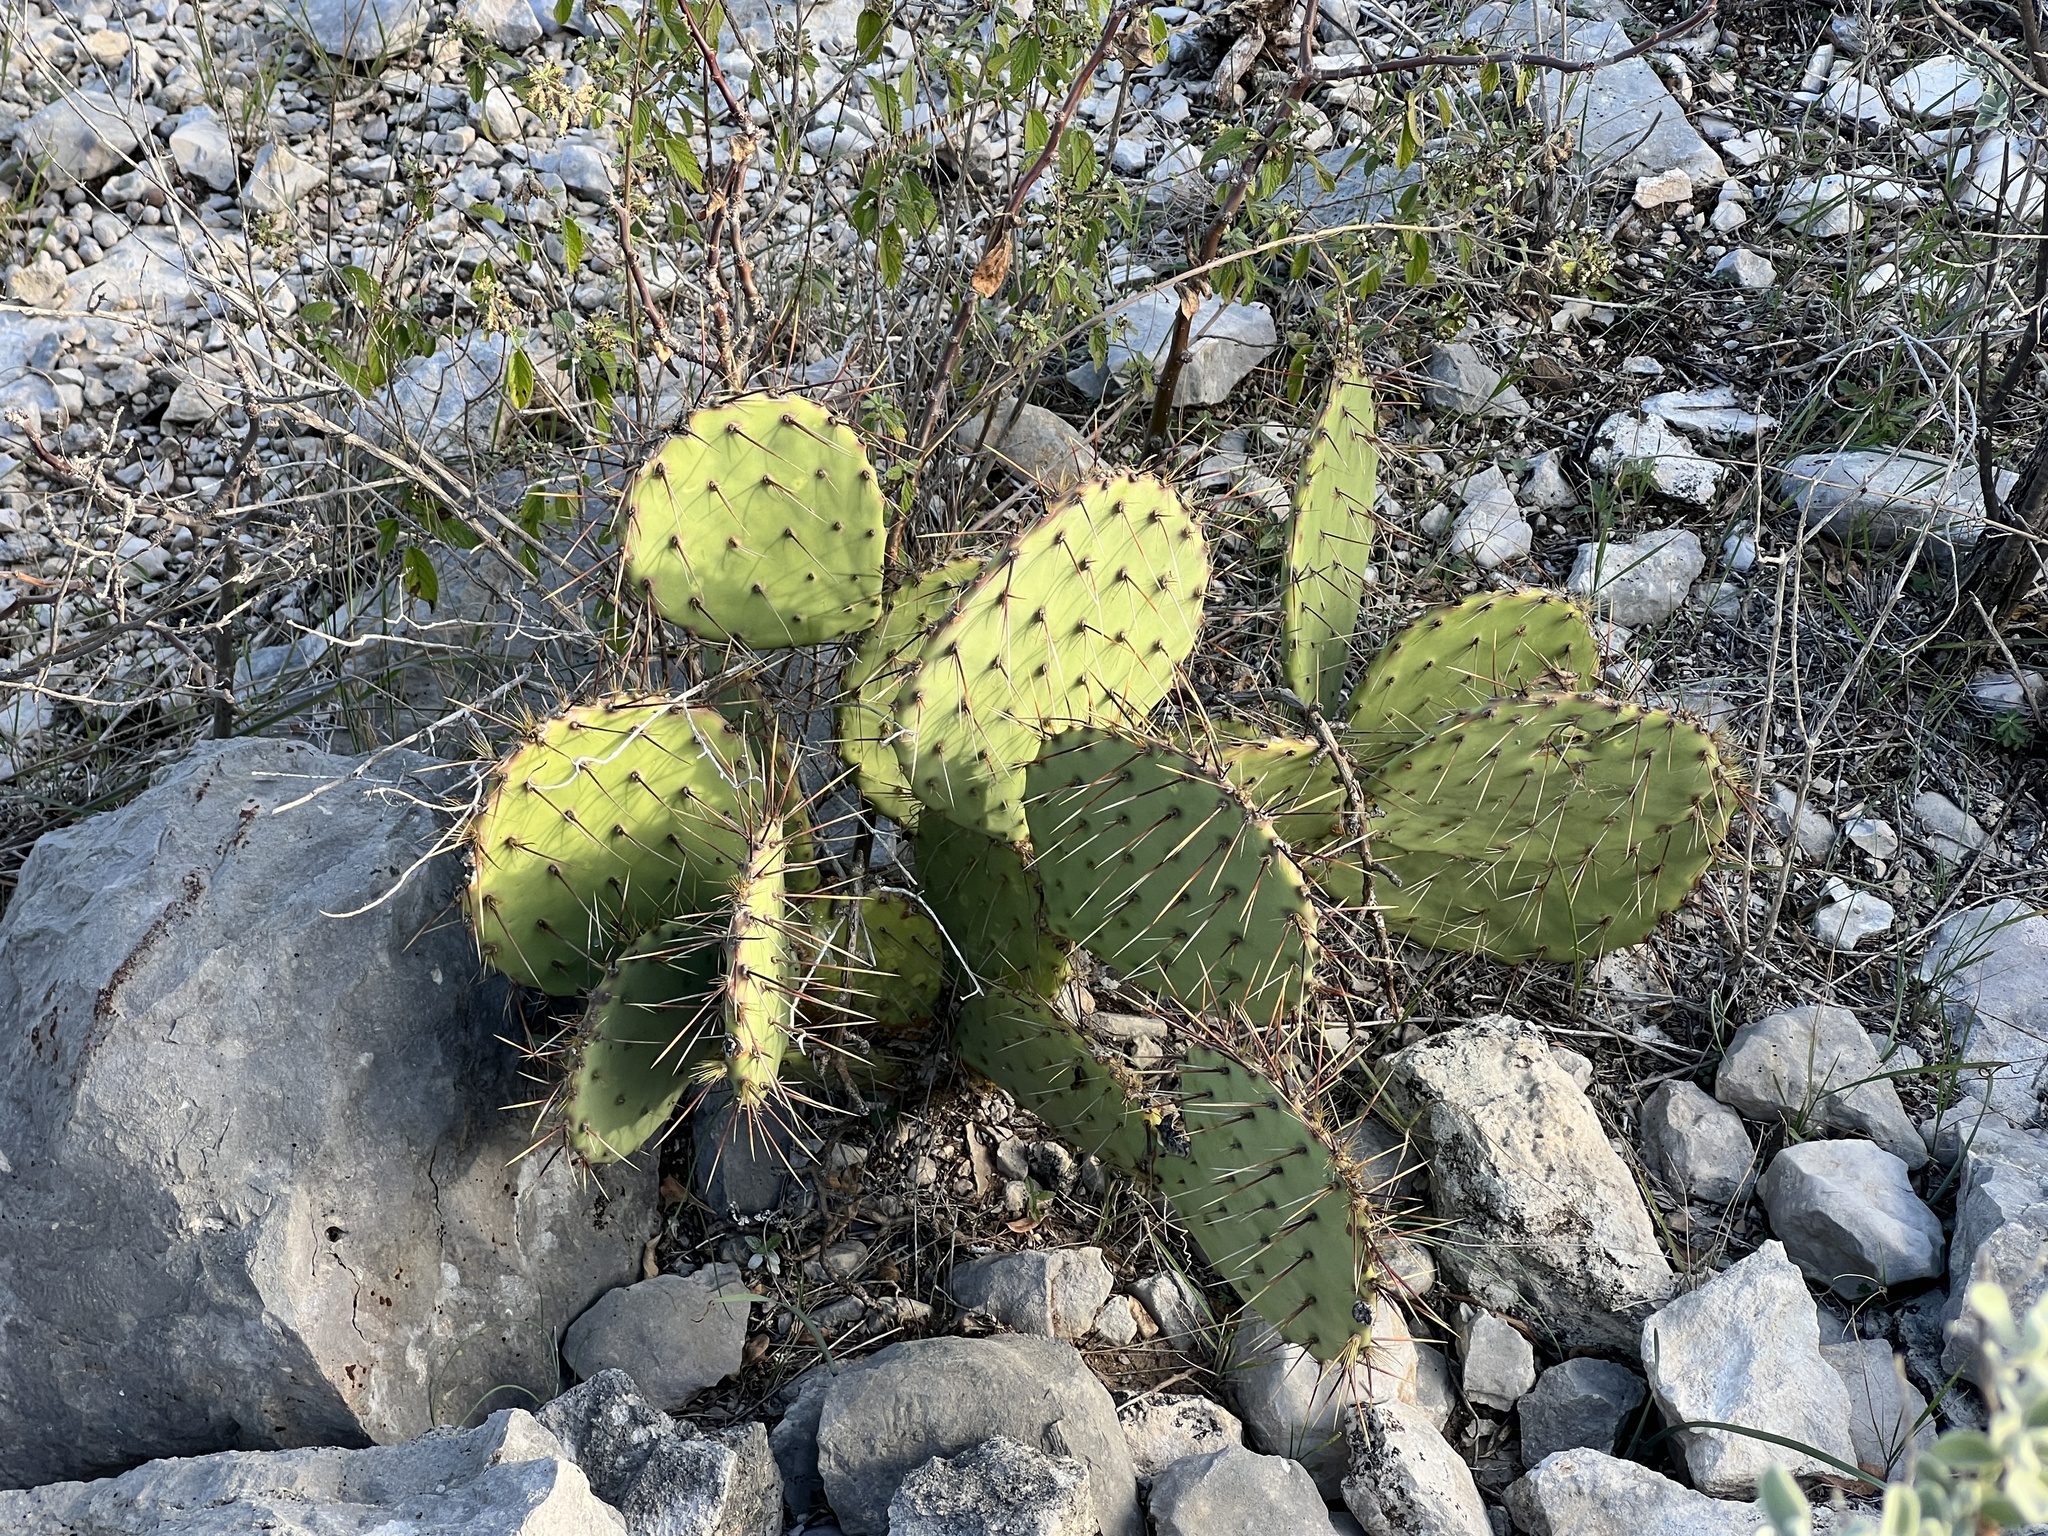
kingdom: Plantae
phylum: Tracheophyta
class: Magnoliopsida
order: Caryophyllales
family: Cactaceae
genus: Opuntia
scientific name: Opuntia engelmannii
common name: Cactus-apple
